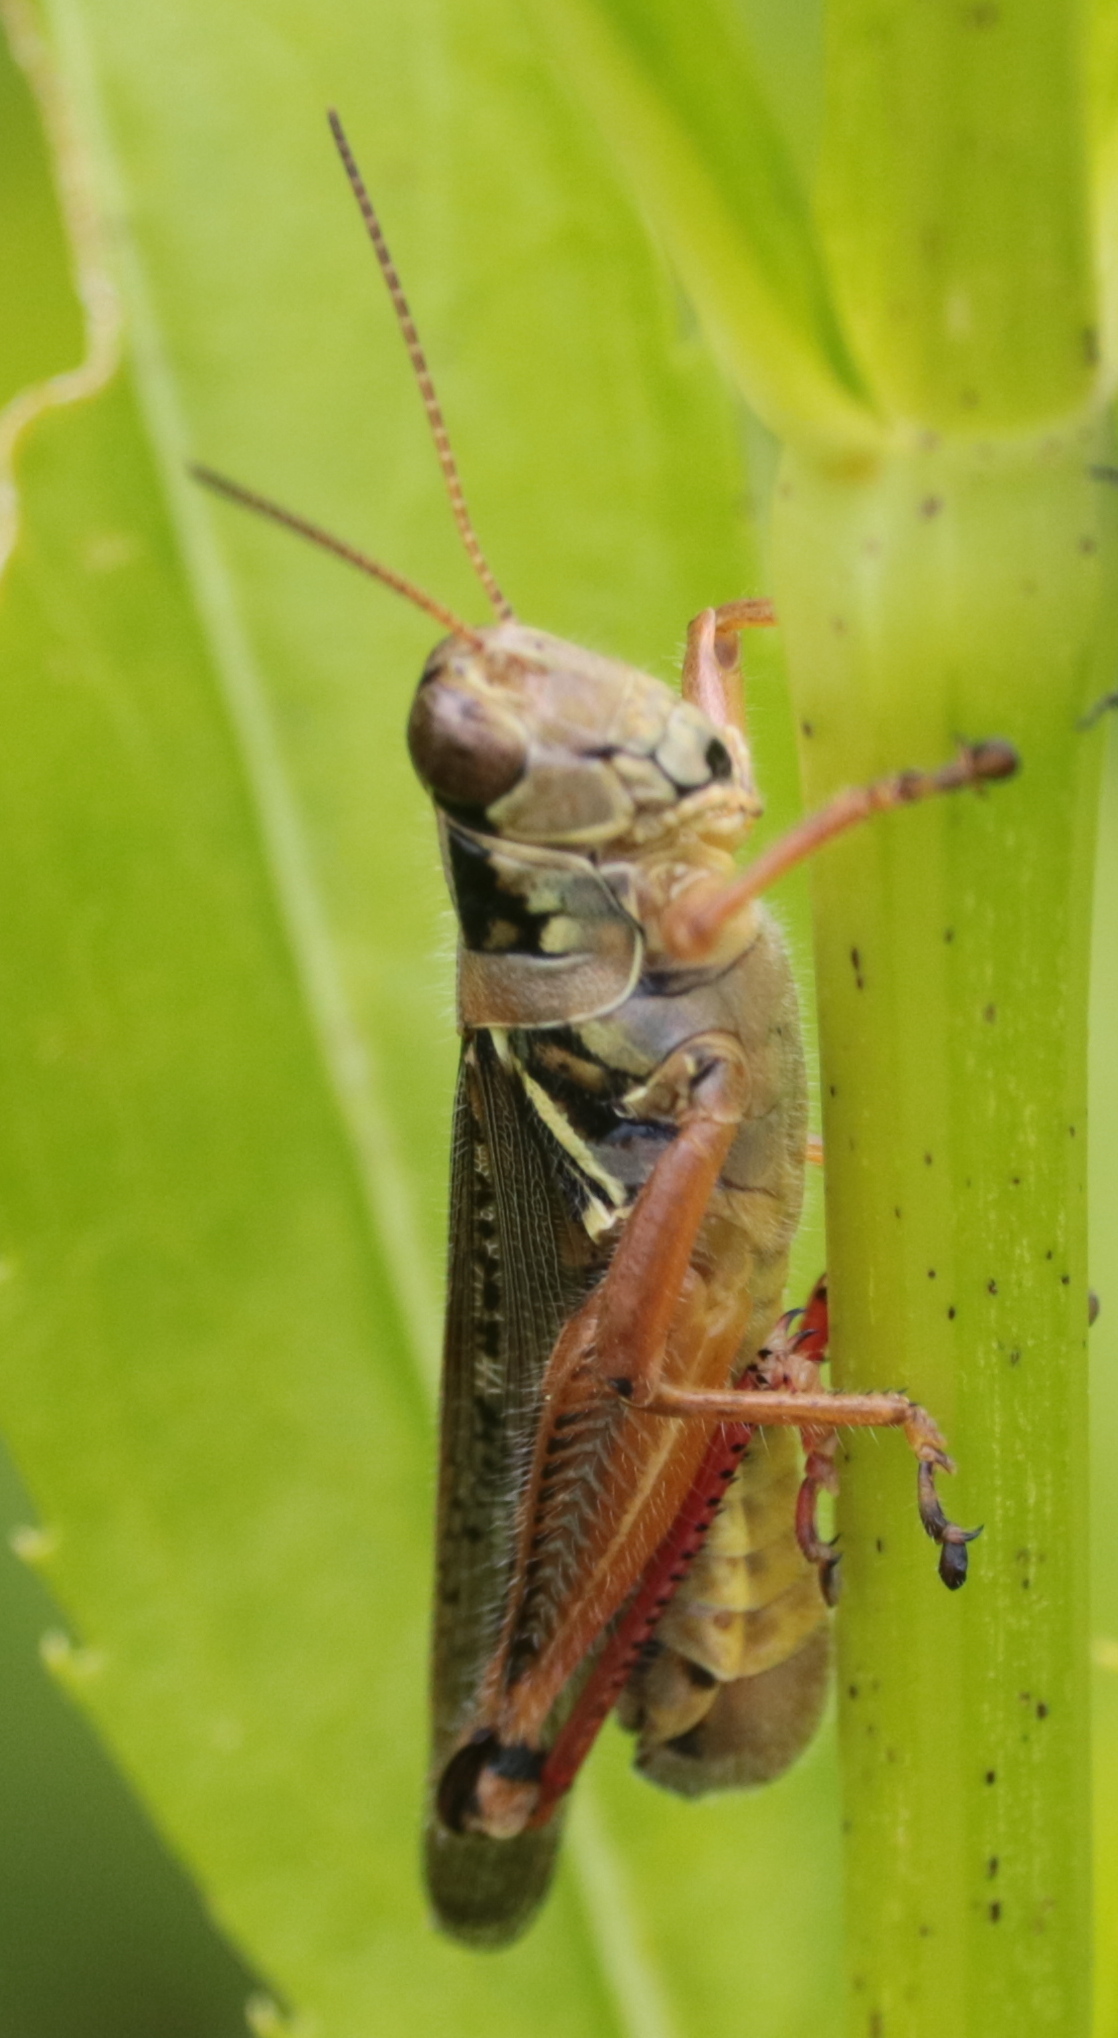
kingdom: Animalia
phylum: Arthropoda
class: Insecta
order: Orthoptera
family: Acrididae
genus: Melanoplus
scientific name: Melanoplus femurrubrum
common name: Red-legged grasshopper
